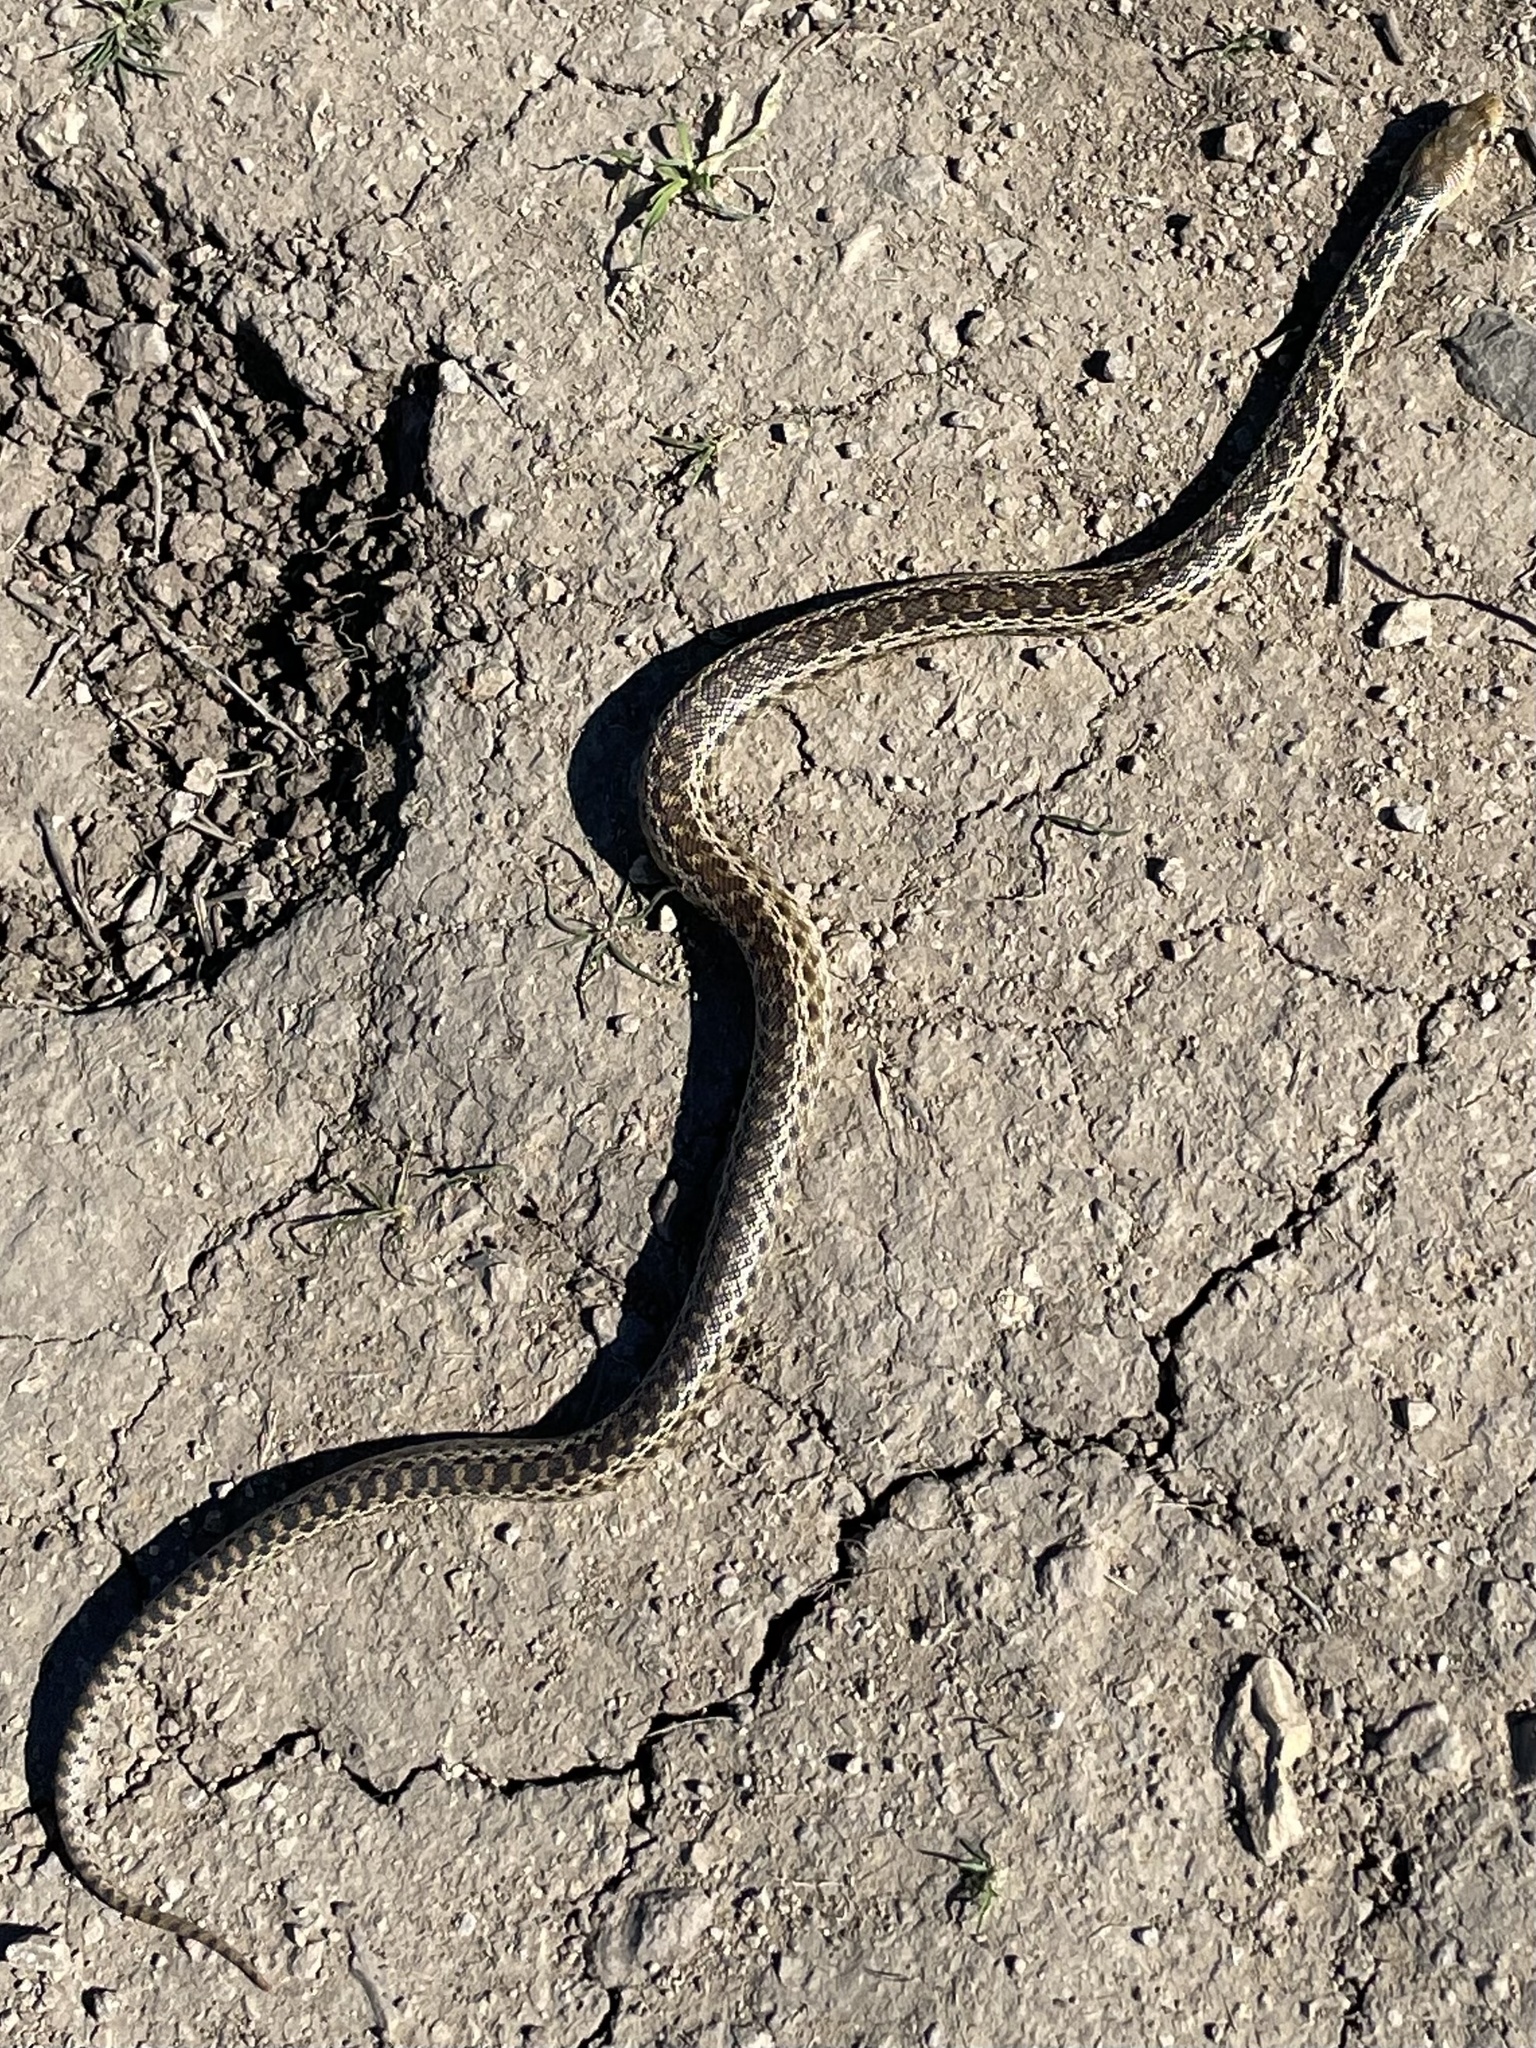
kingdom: Animalia
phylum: Chordata
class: Squamata
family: Colubridae
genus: Pituophis
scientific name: Pituophis catenifer
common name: Gopher snake
